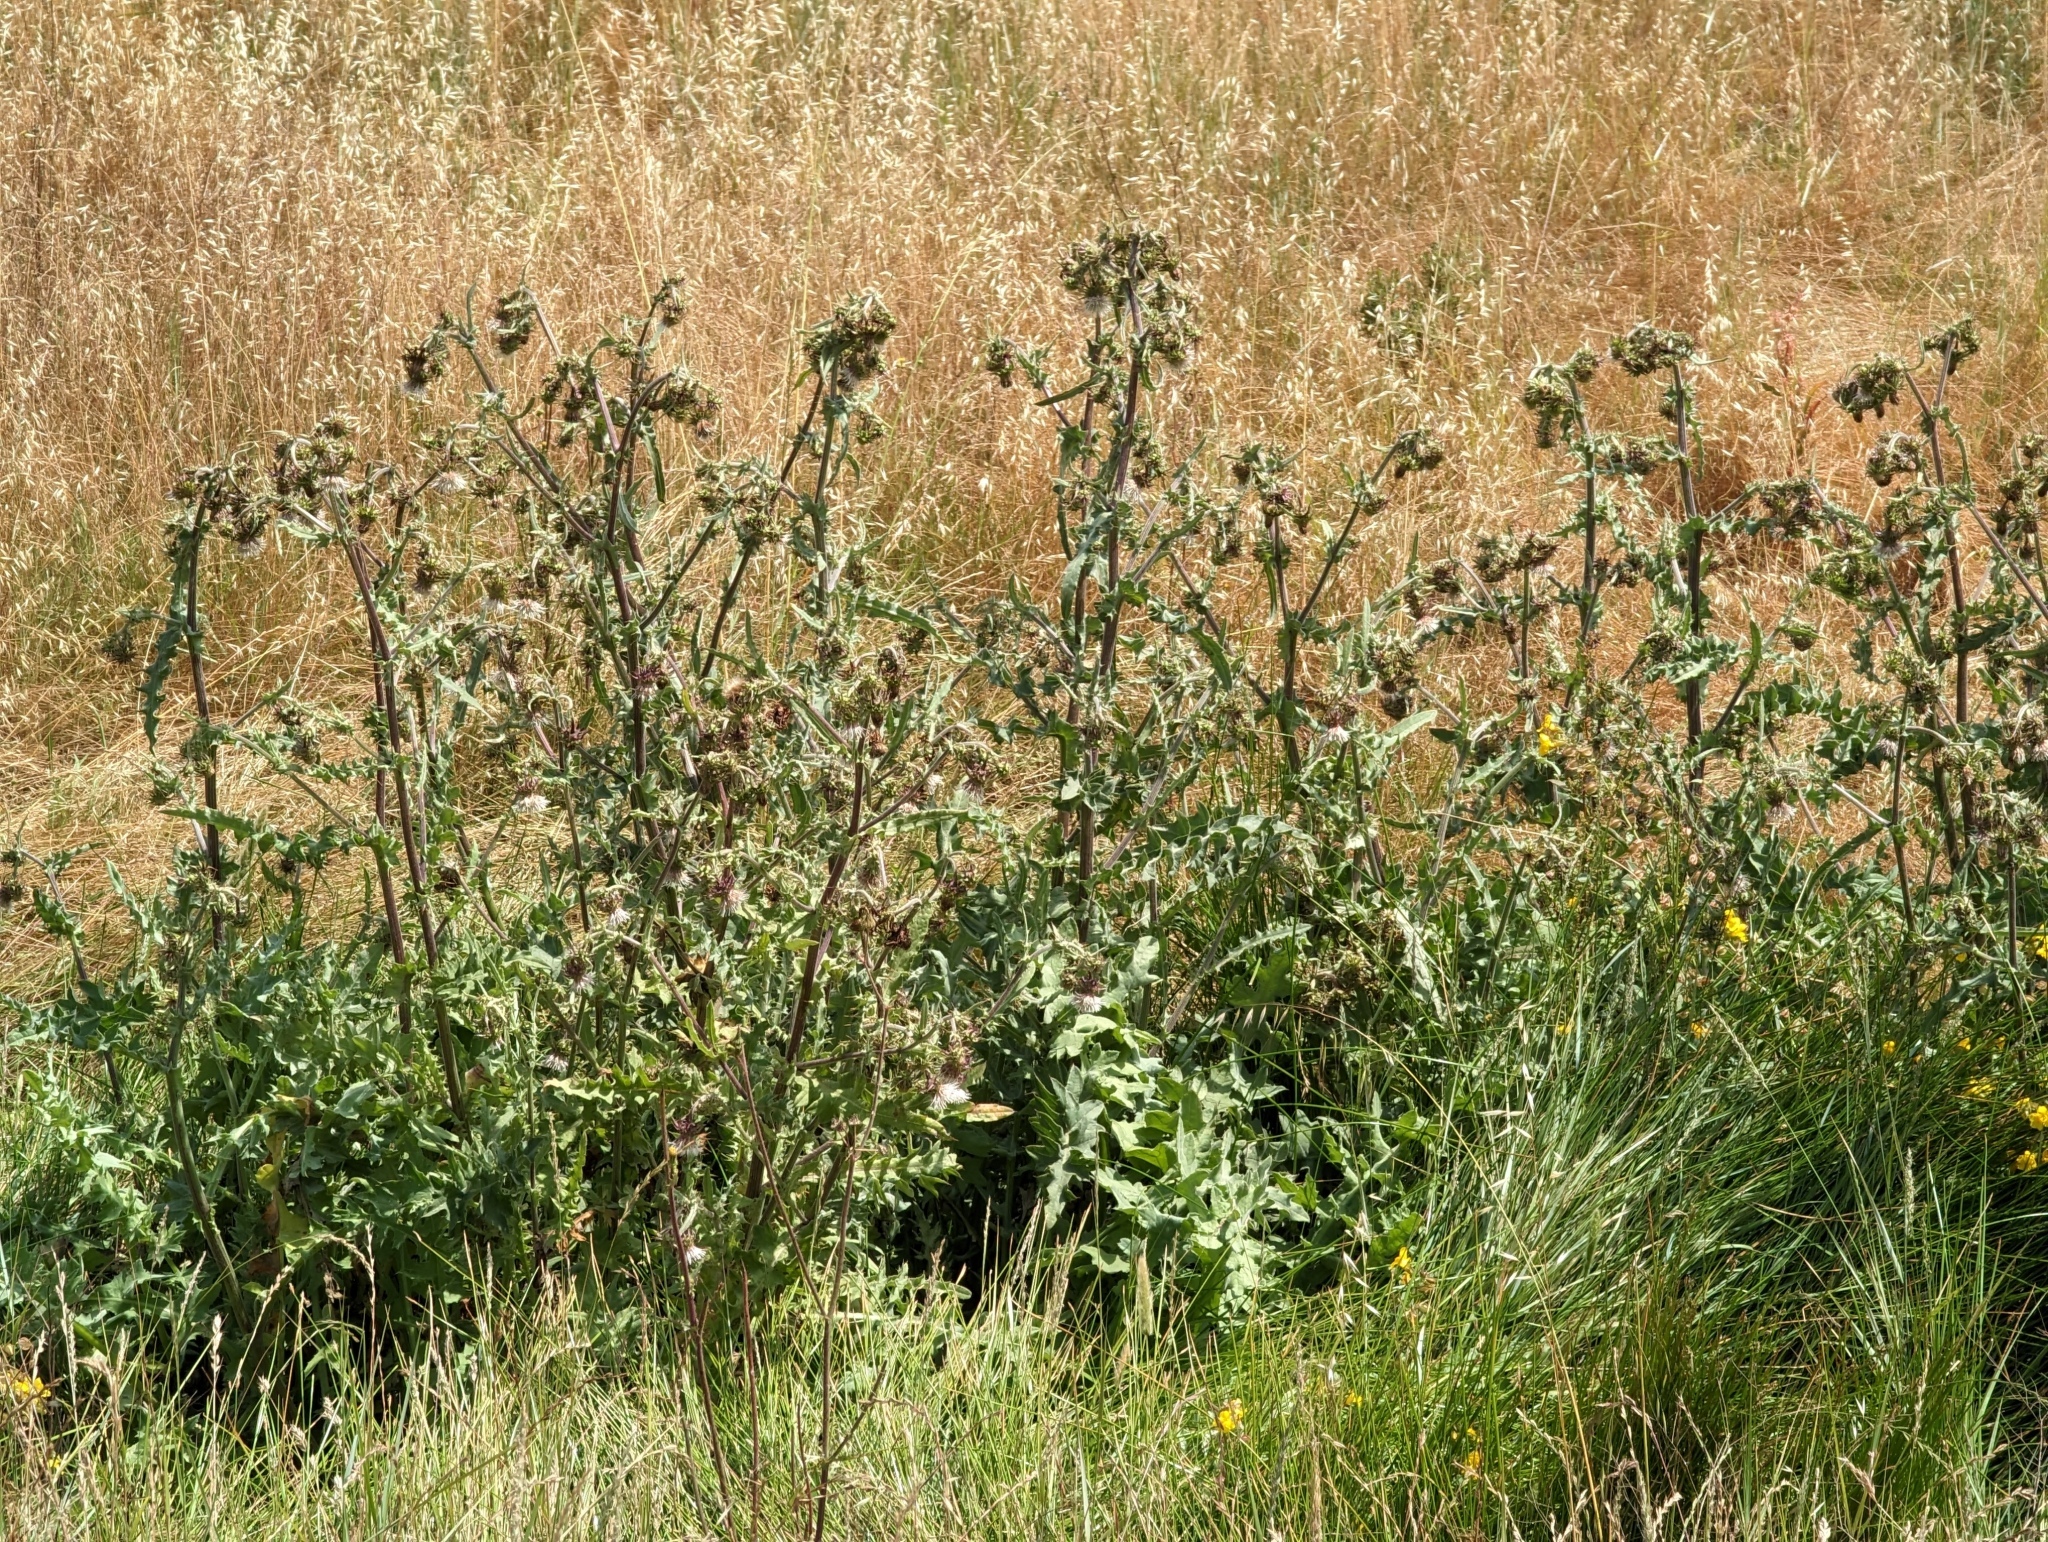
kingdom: Plantae
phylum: Tracheophyta
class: Magnoliopsida
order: Asterales
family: Asteraceae
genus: Cirsium
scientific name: Cirsium fontinale
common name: Fountain thistle
